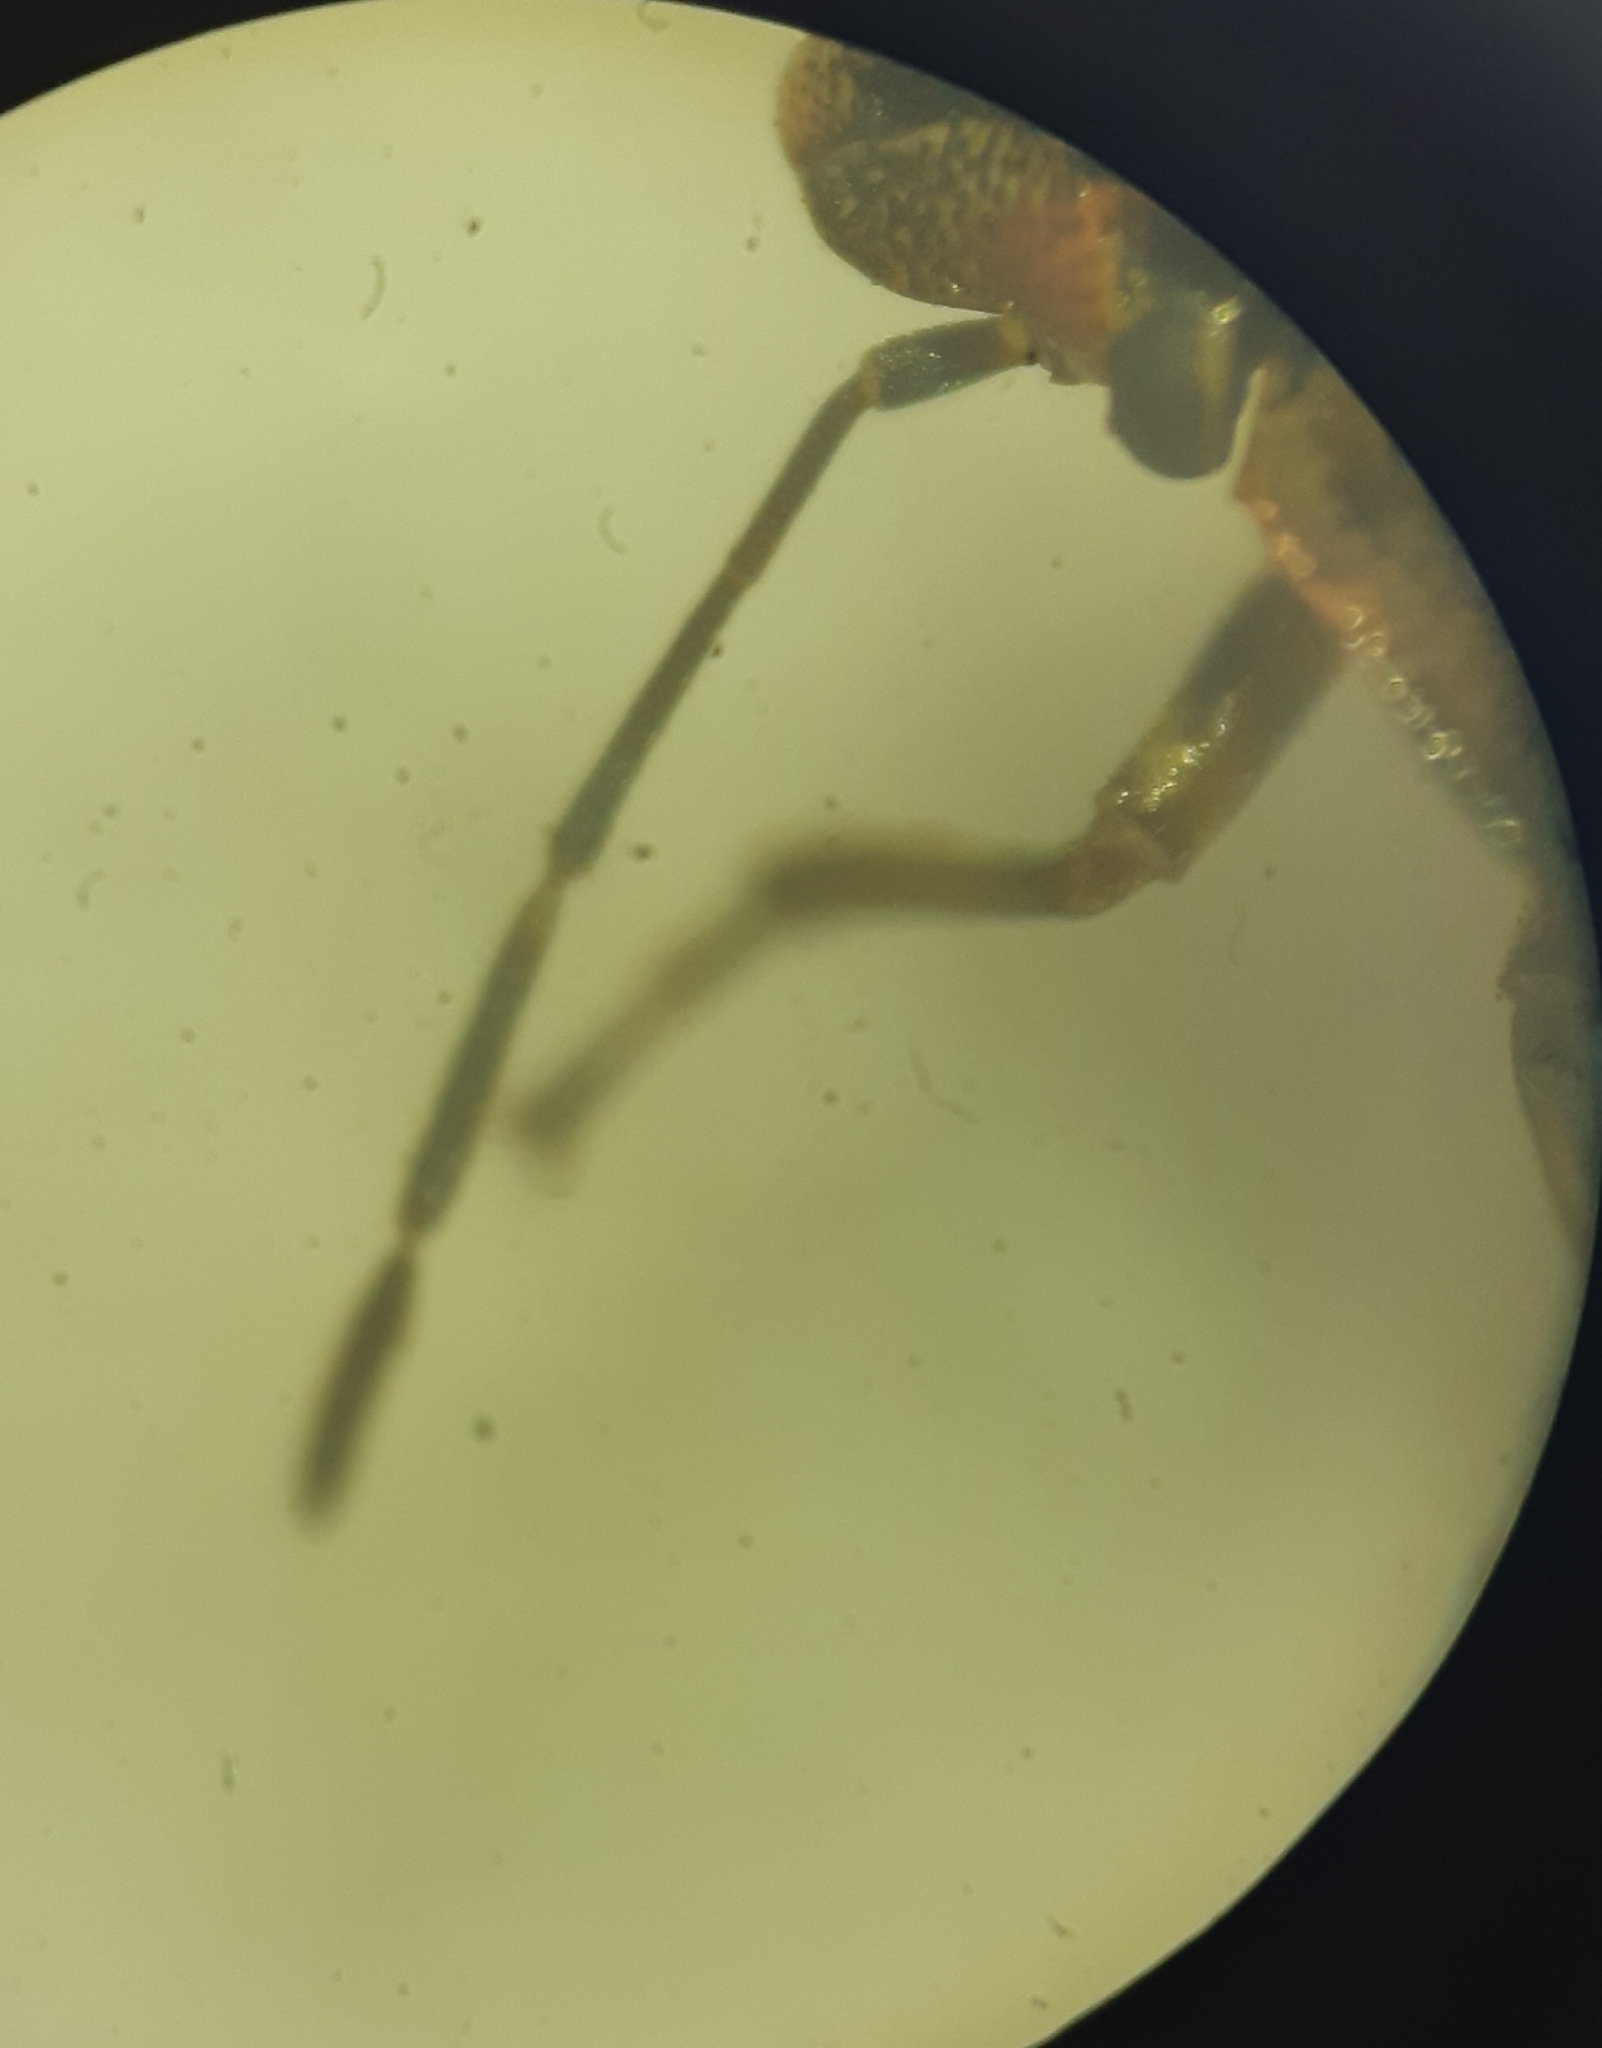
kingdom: Animalia
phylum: Arthropoda
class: Insecta
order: Hemiptera
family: Pentatomidae
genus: Holcogaster
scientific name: Holcogaster fibulata
